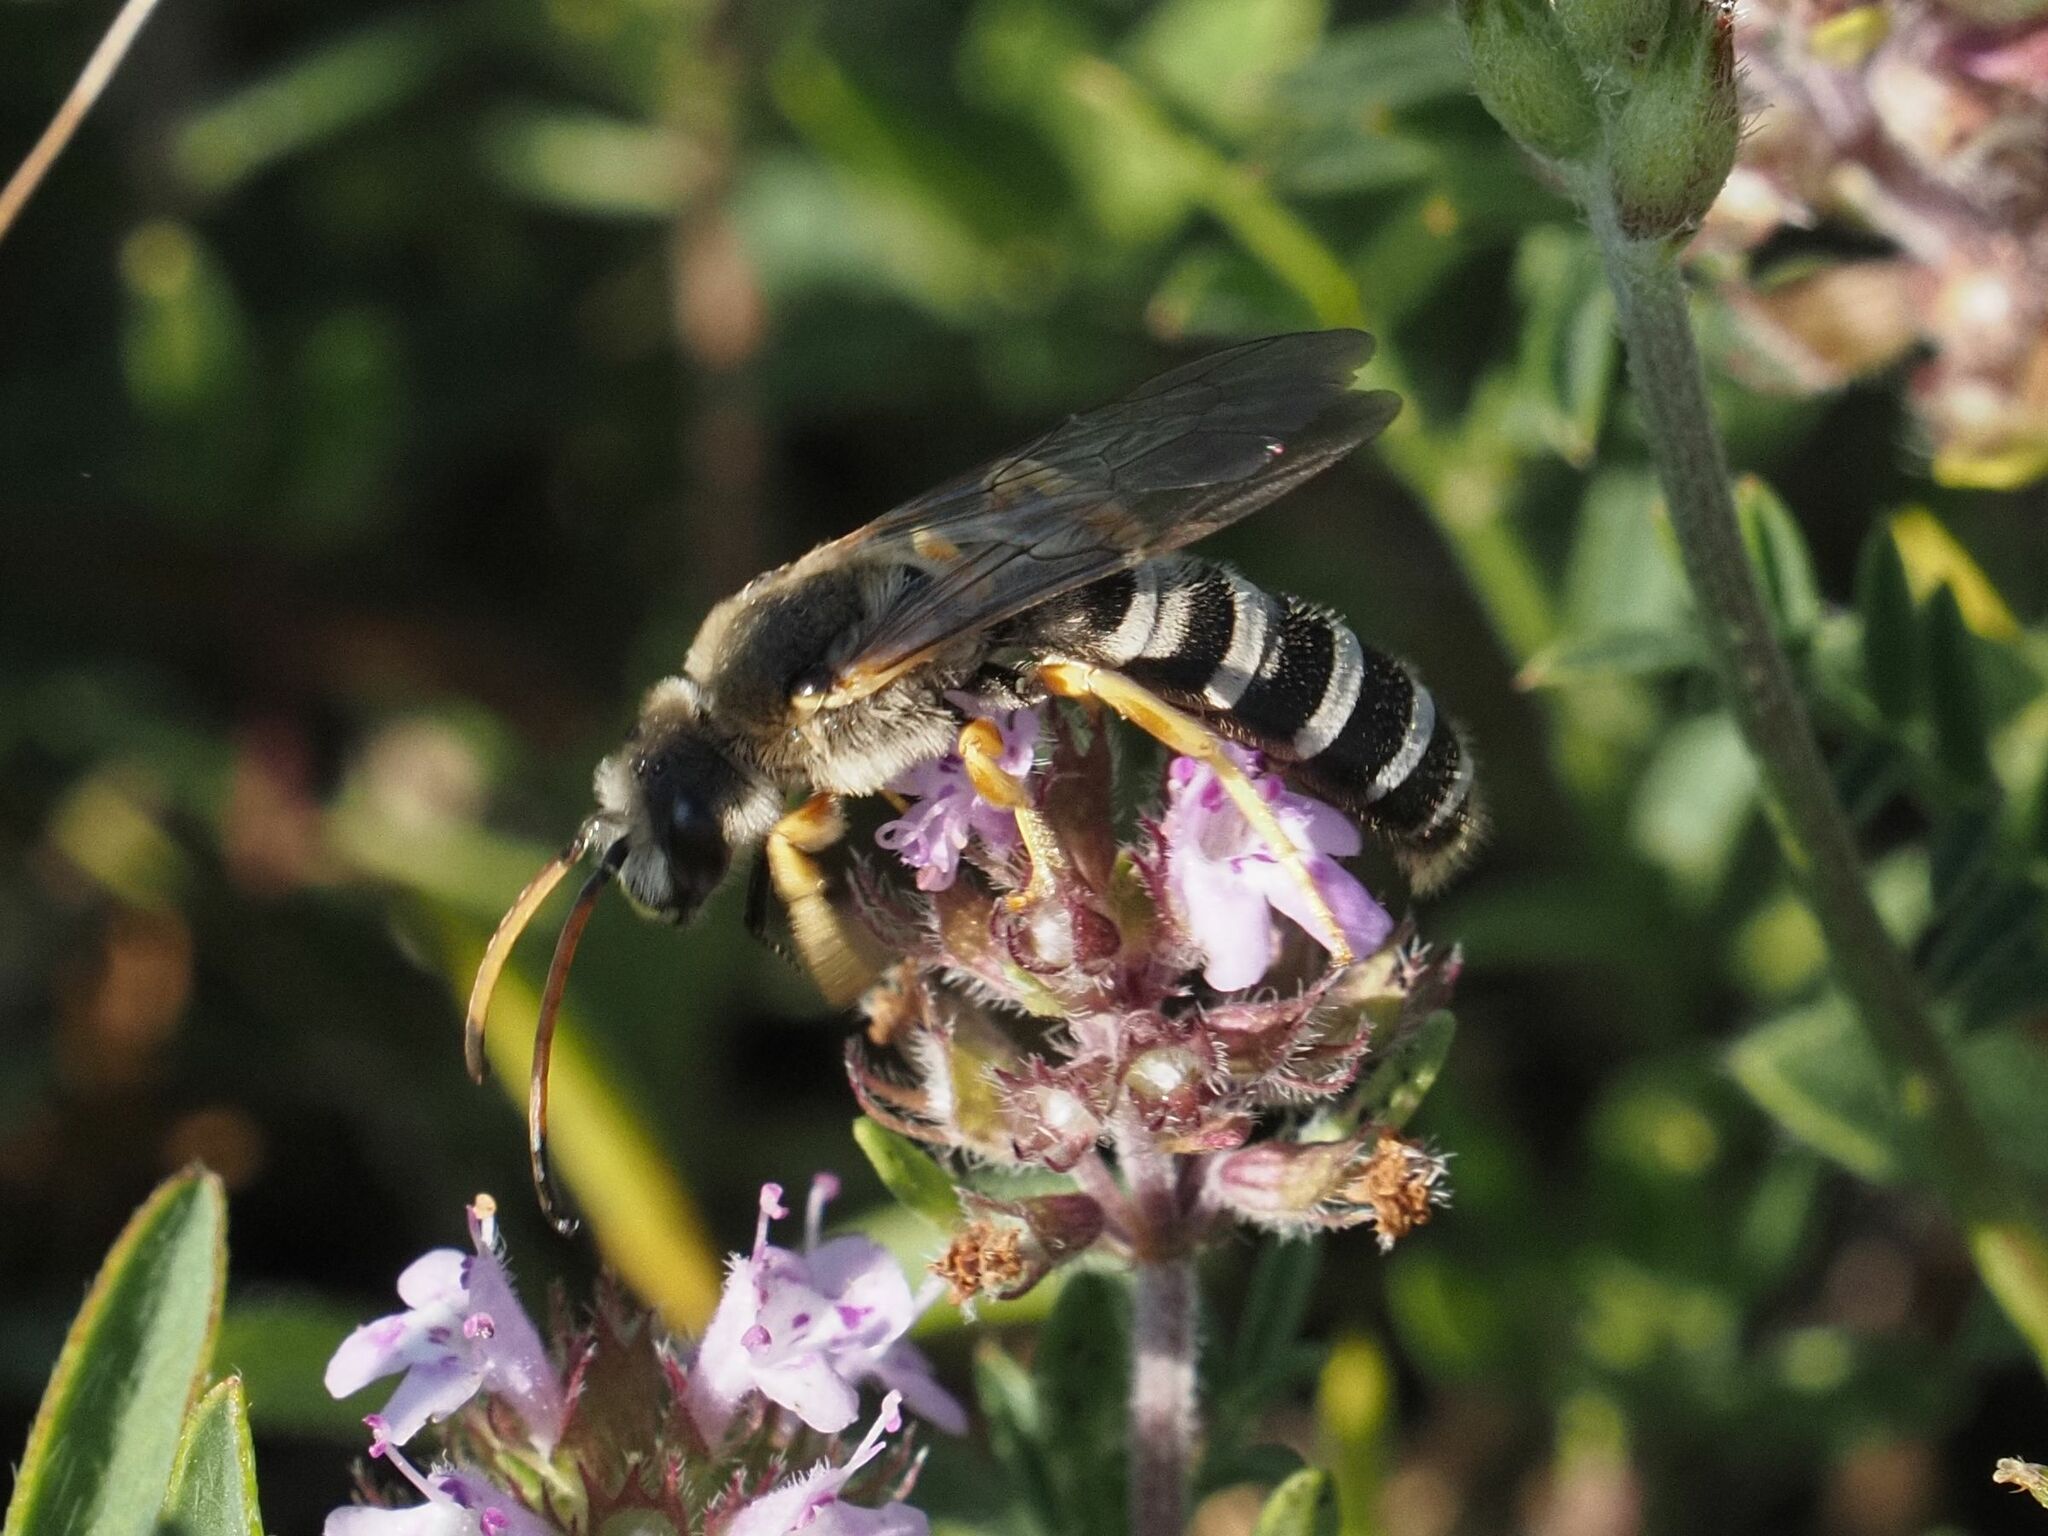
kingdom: Animalia
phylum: Arthropoda
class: Insecta
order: Hymenoptera
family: Halictidae
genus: Halictus
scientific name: Halictus sexcinctus
